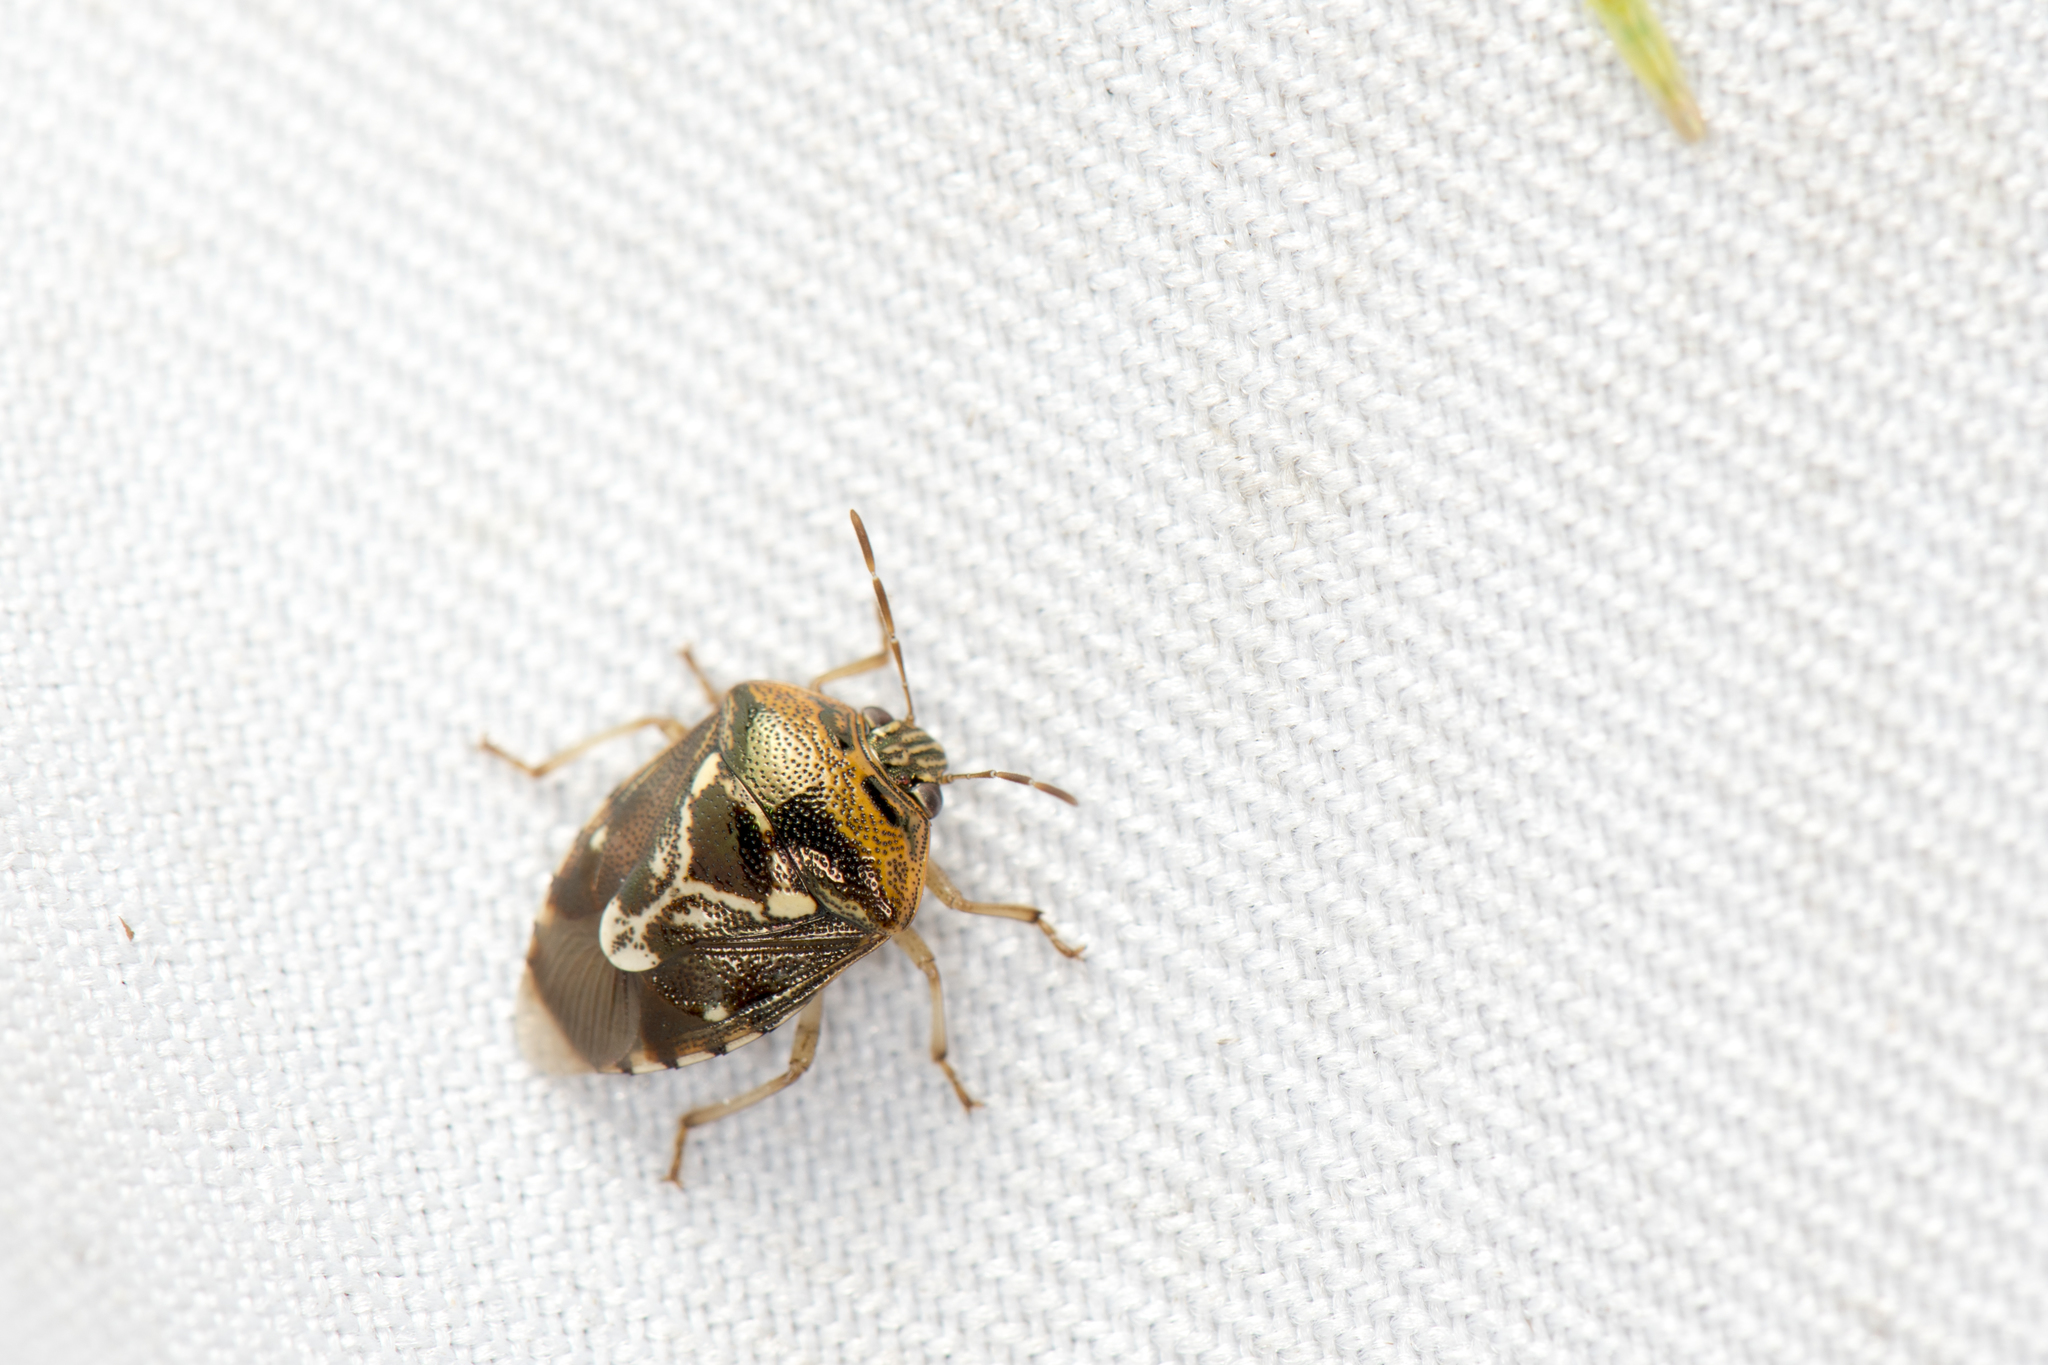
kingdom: Animalia
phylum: Arthropoda
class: Insecta
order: Hemiptera
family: Pentatomidae
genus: Menida
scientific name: Menida formosa
